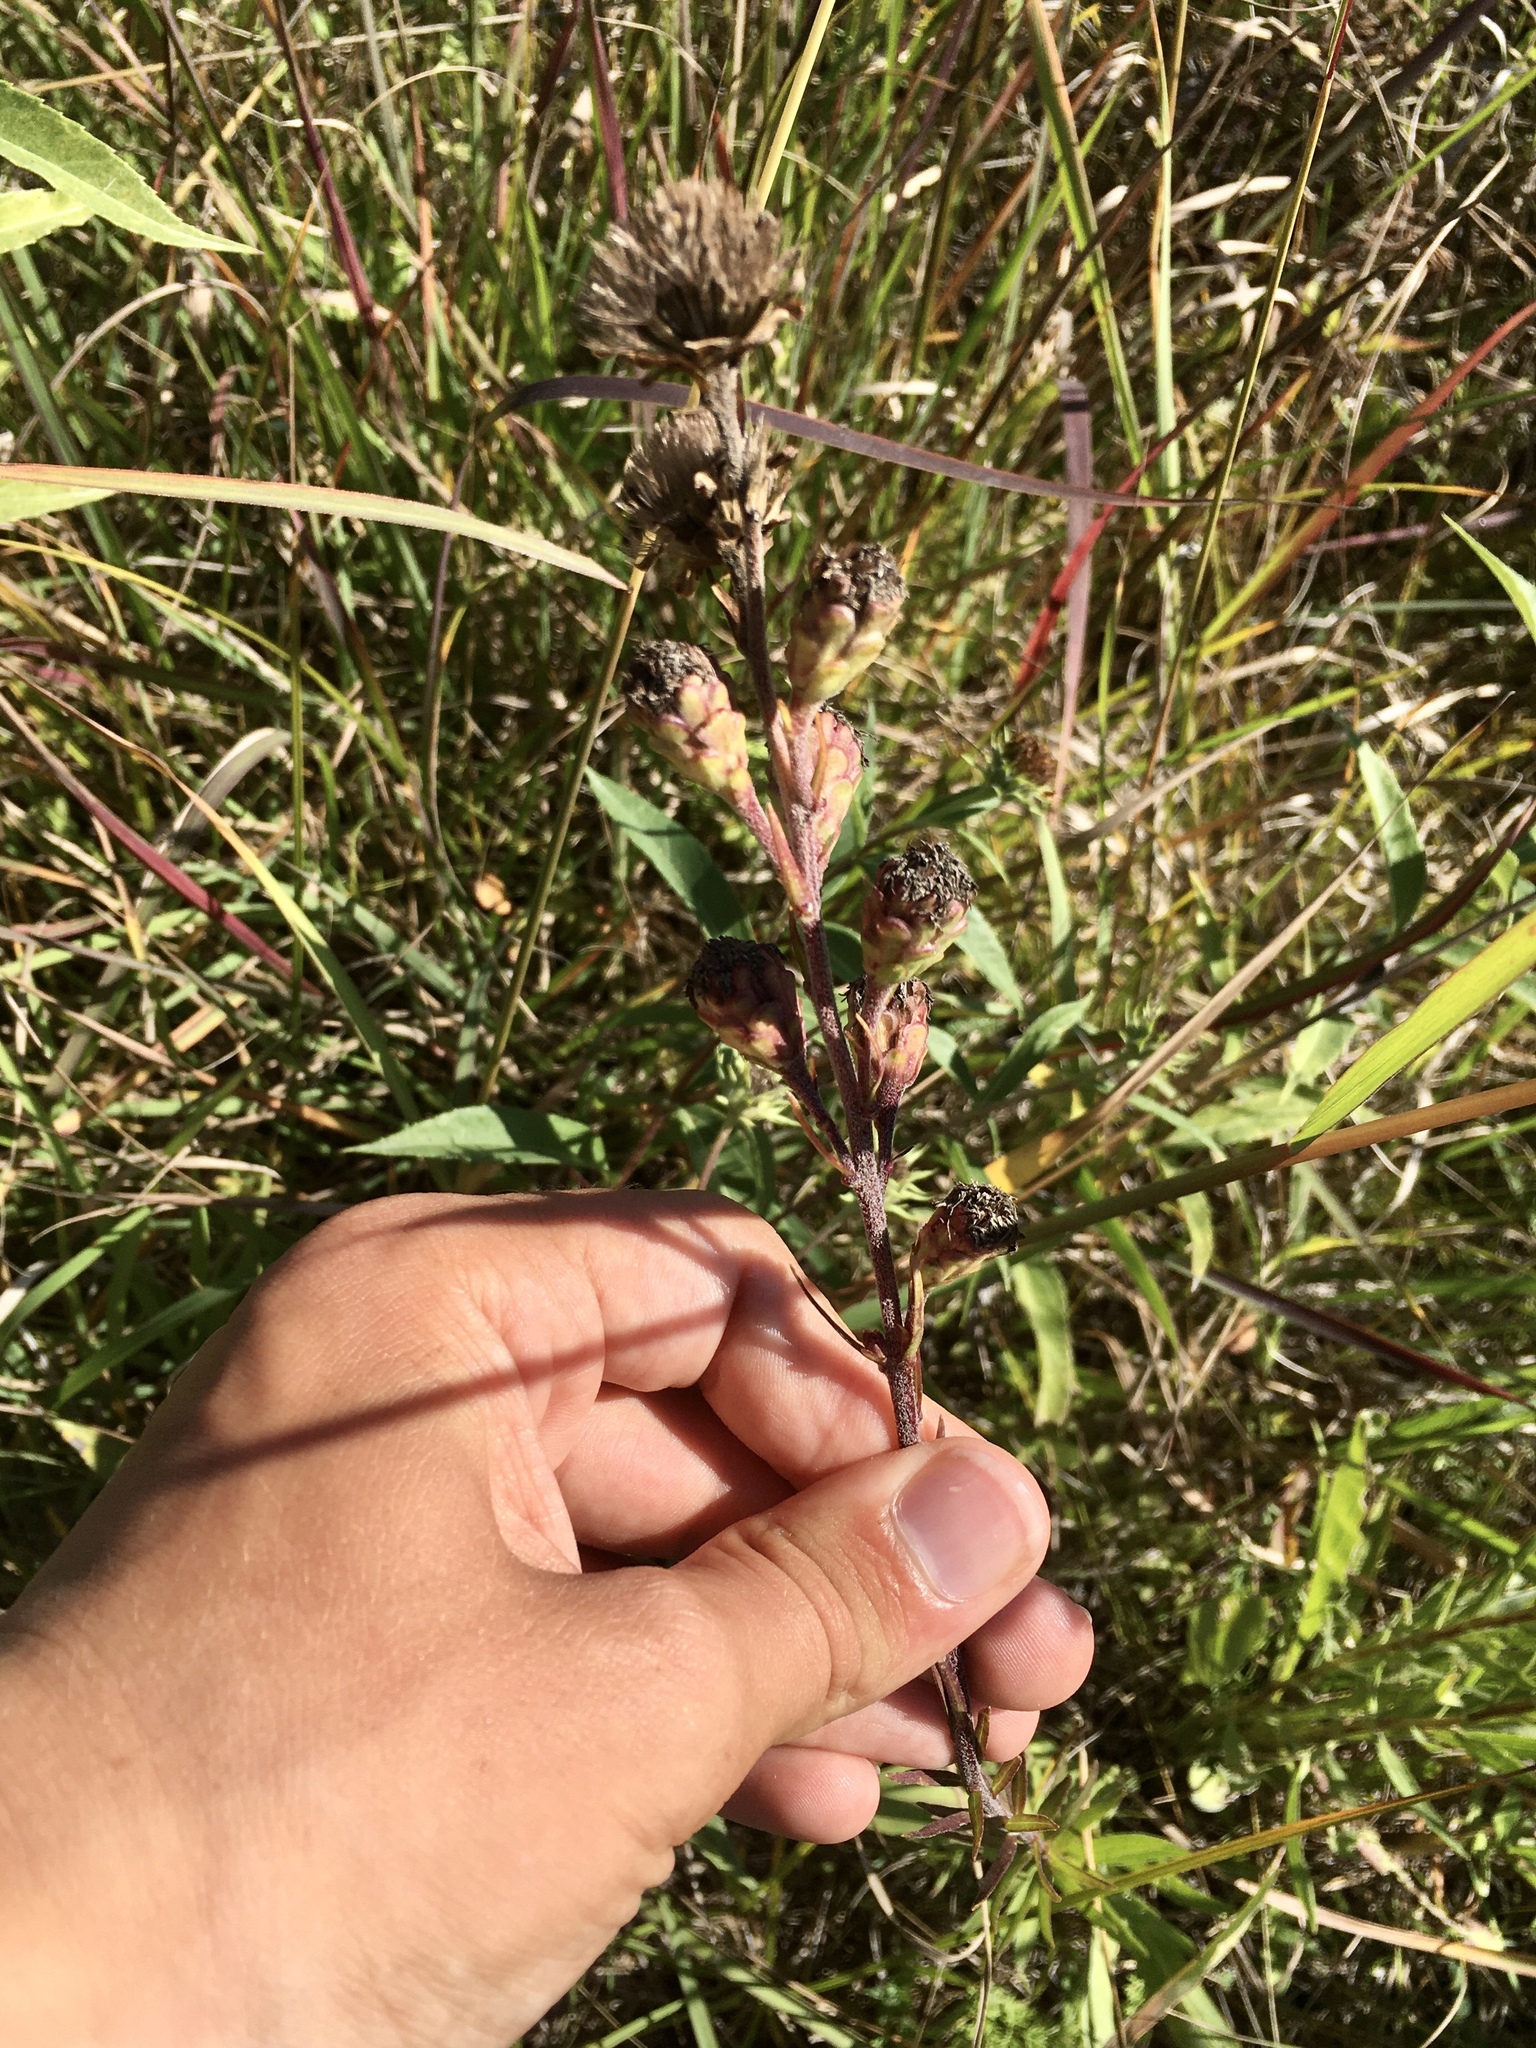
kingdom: Plantae
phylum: Tracheophyta
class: Magnoliopsida
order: Asterales
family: Asteraceae
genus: Liatris
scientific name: Liatris ligulistylis
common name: Northern plains gayfeather
